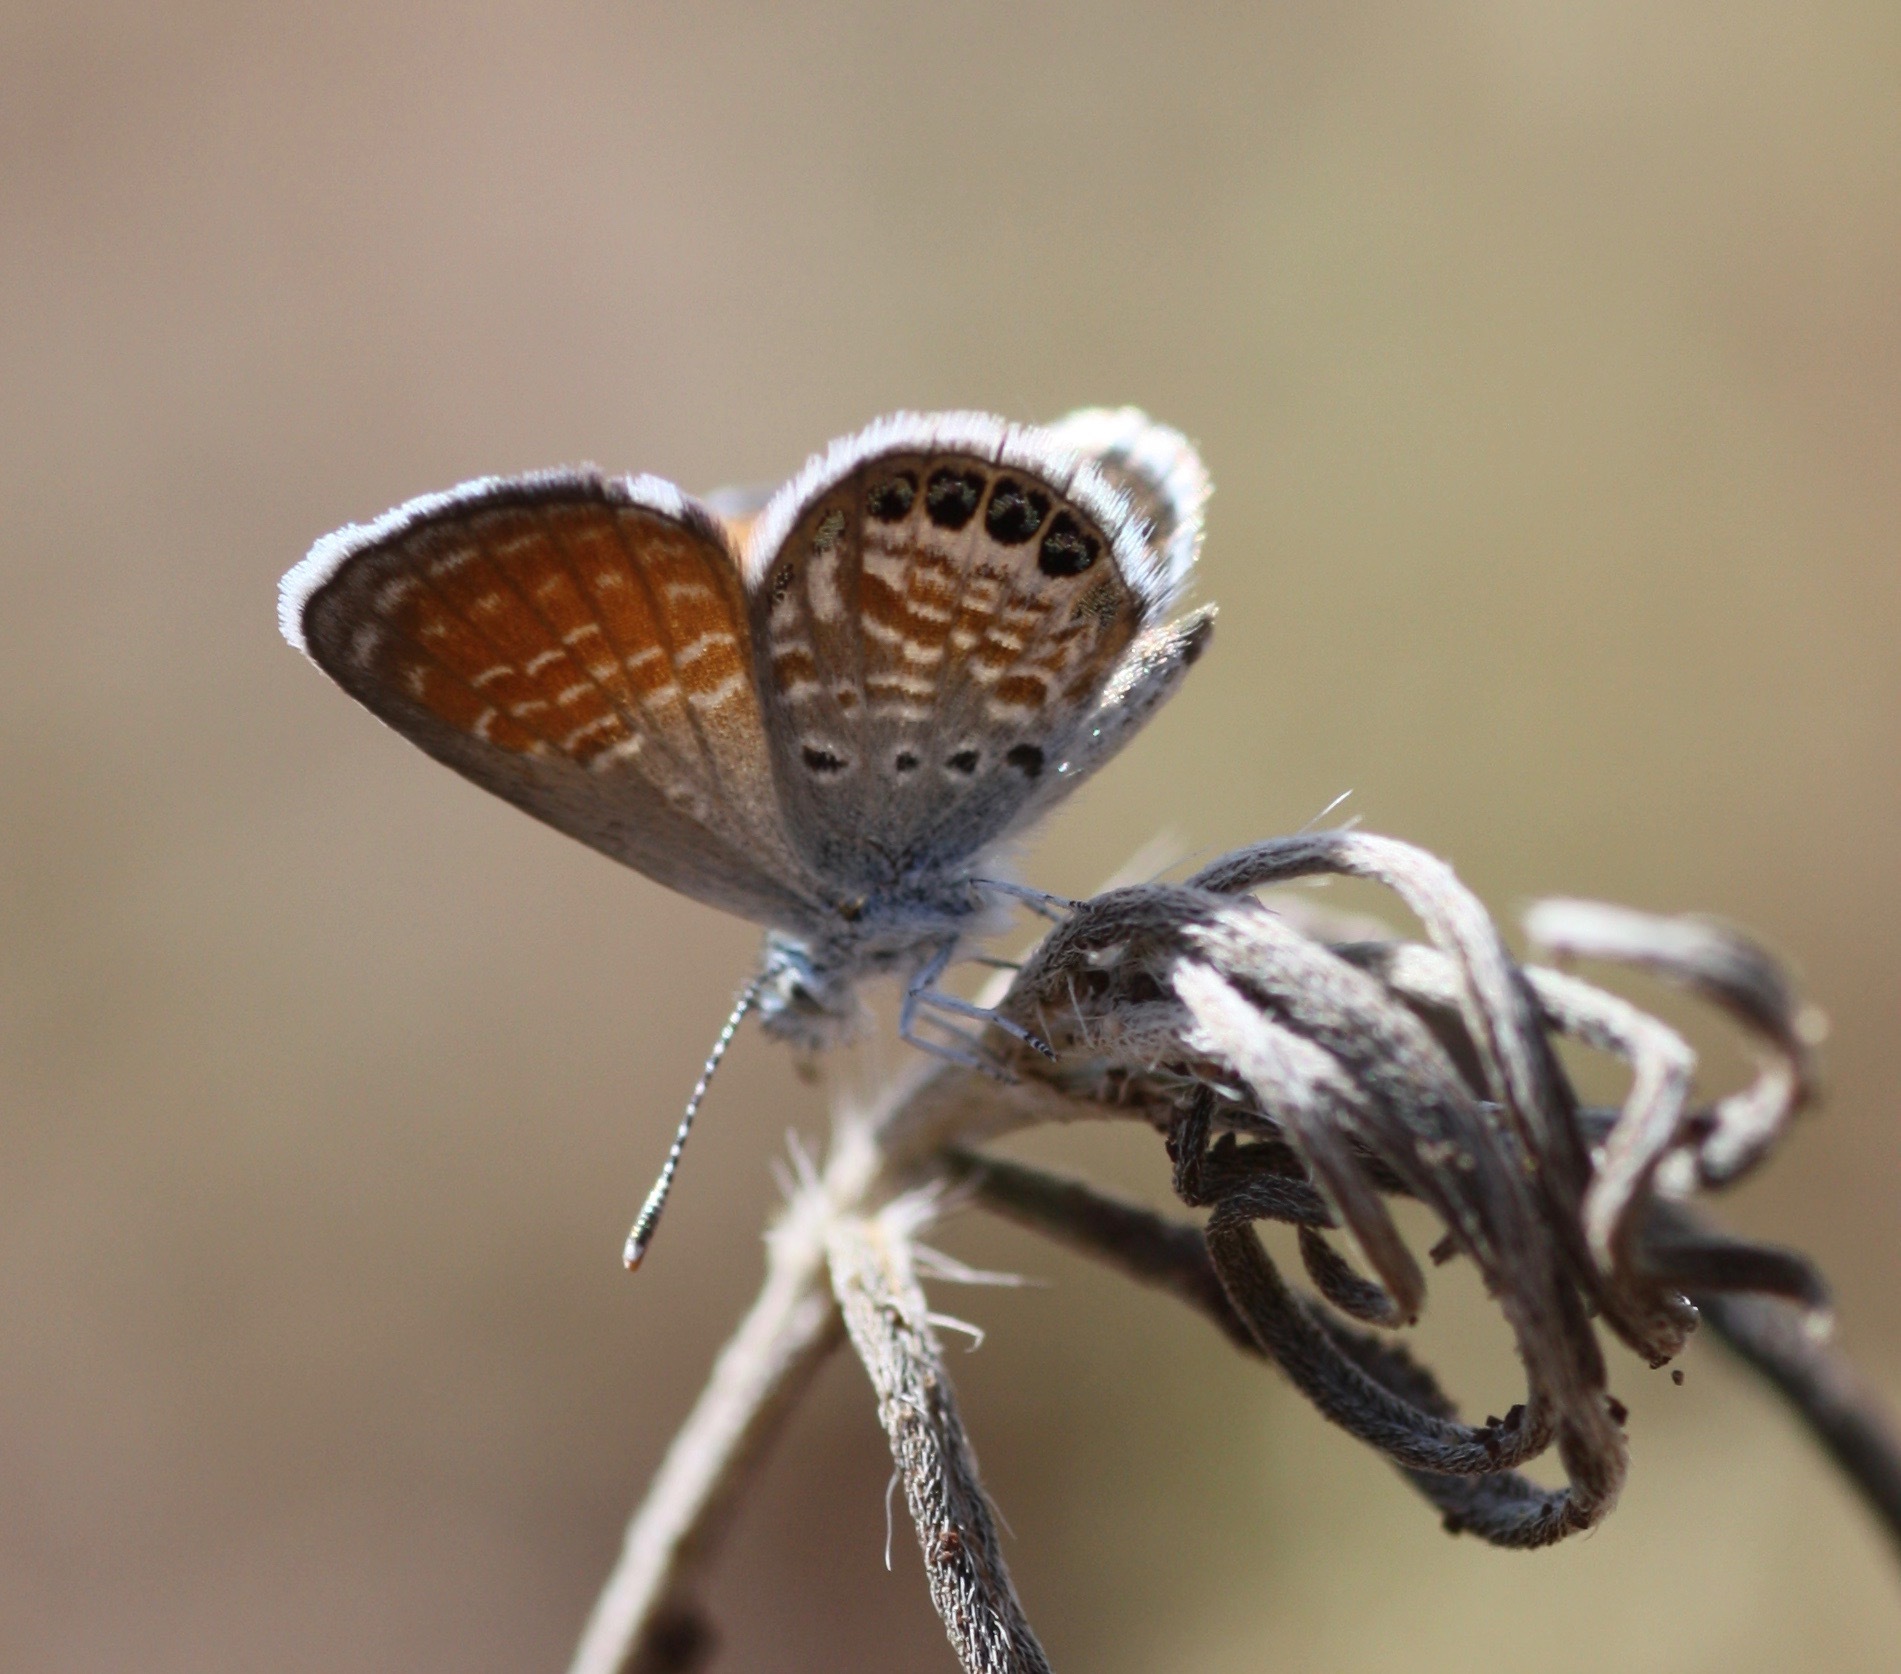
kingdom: Animalia
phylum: Arthropoda
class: Insecta
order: Lepidoptera
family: Lycaenidae
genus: Brephidium
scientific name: Brephidium exilis
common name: Pygmy blue
